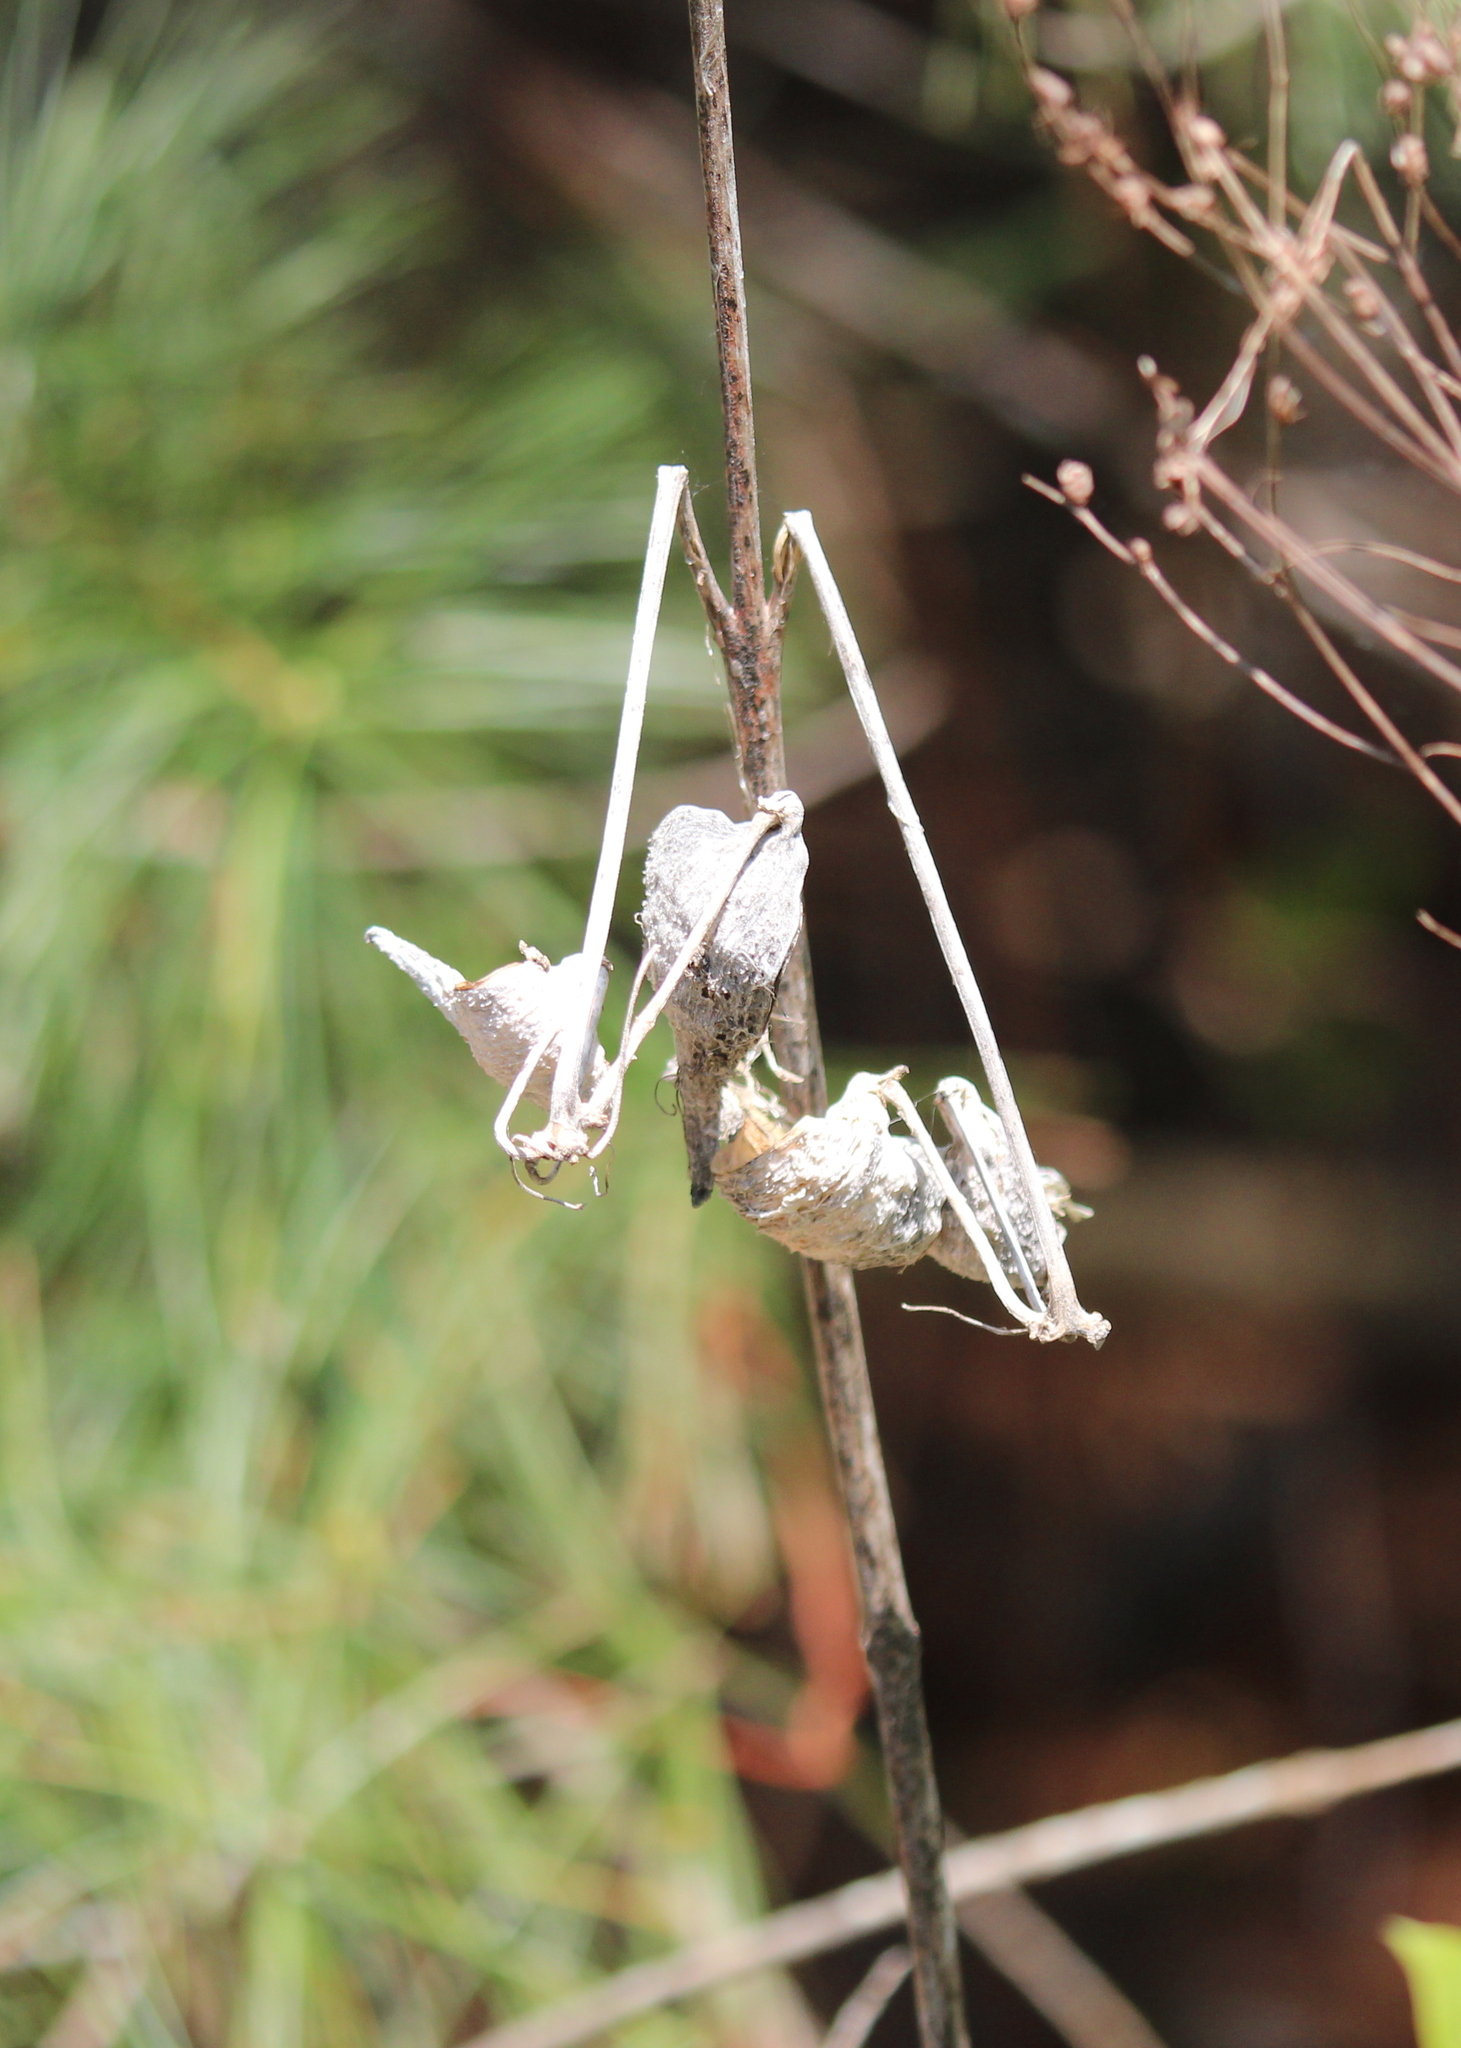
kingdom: Plantae
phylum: Tracheophyta
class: Magnoliopsida
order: Gentianales
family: Apocynaceae
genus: Asclepias
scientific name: Asclepias syriaca
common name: Common milkweed
